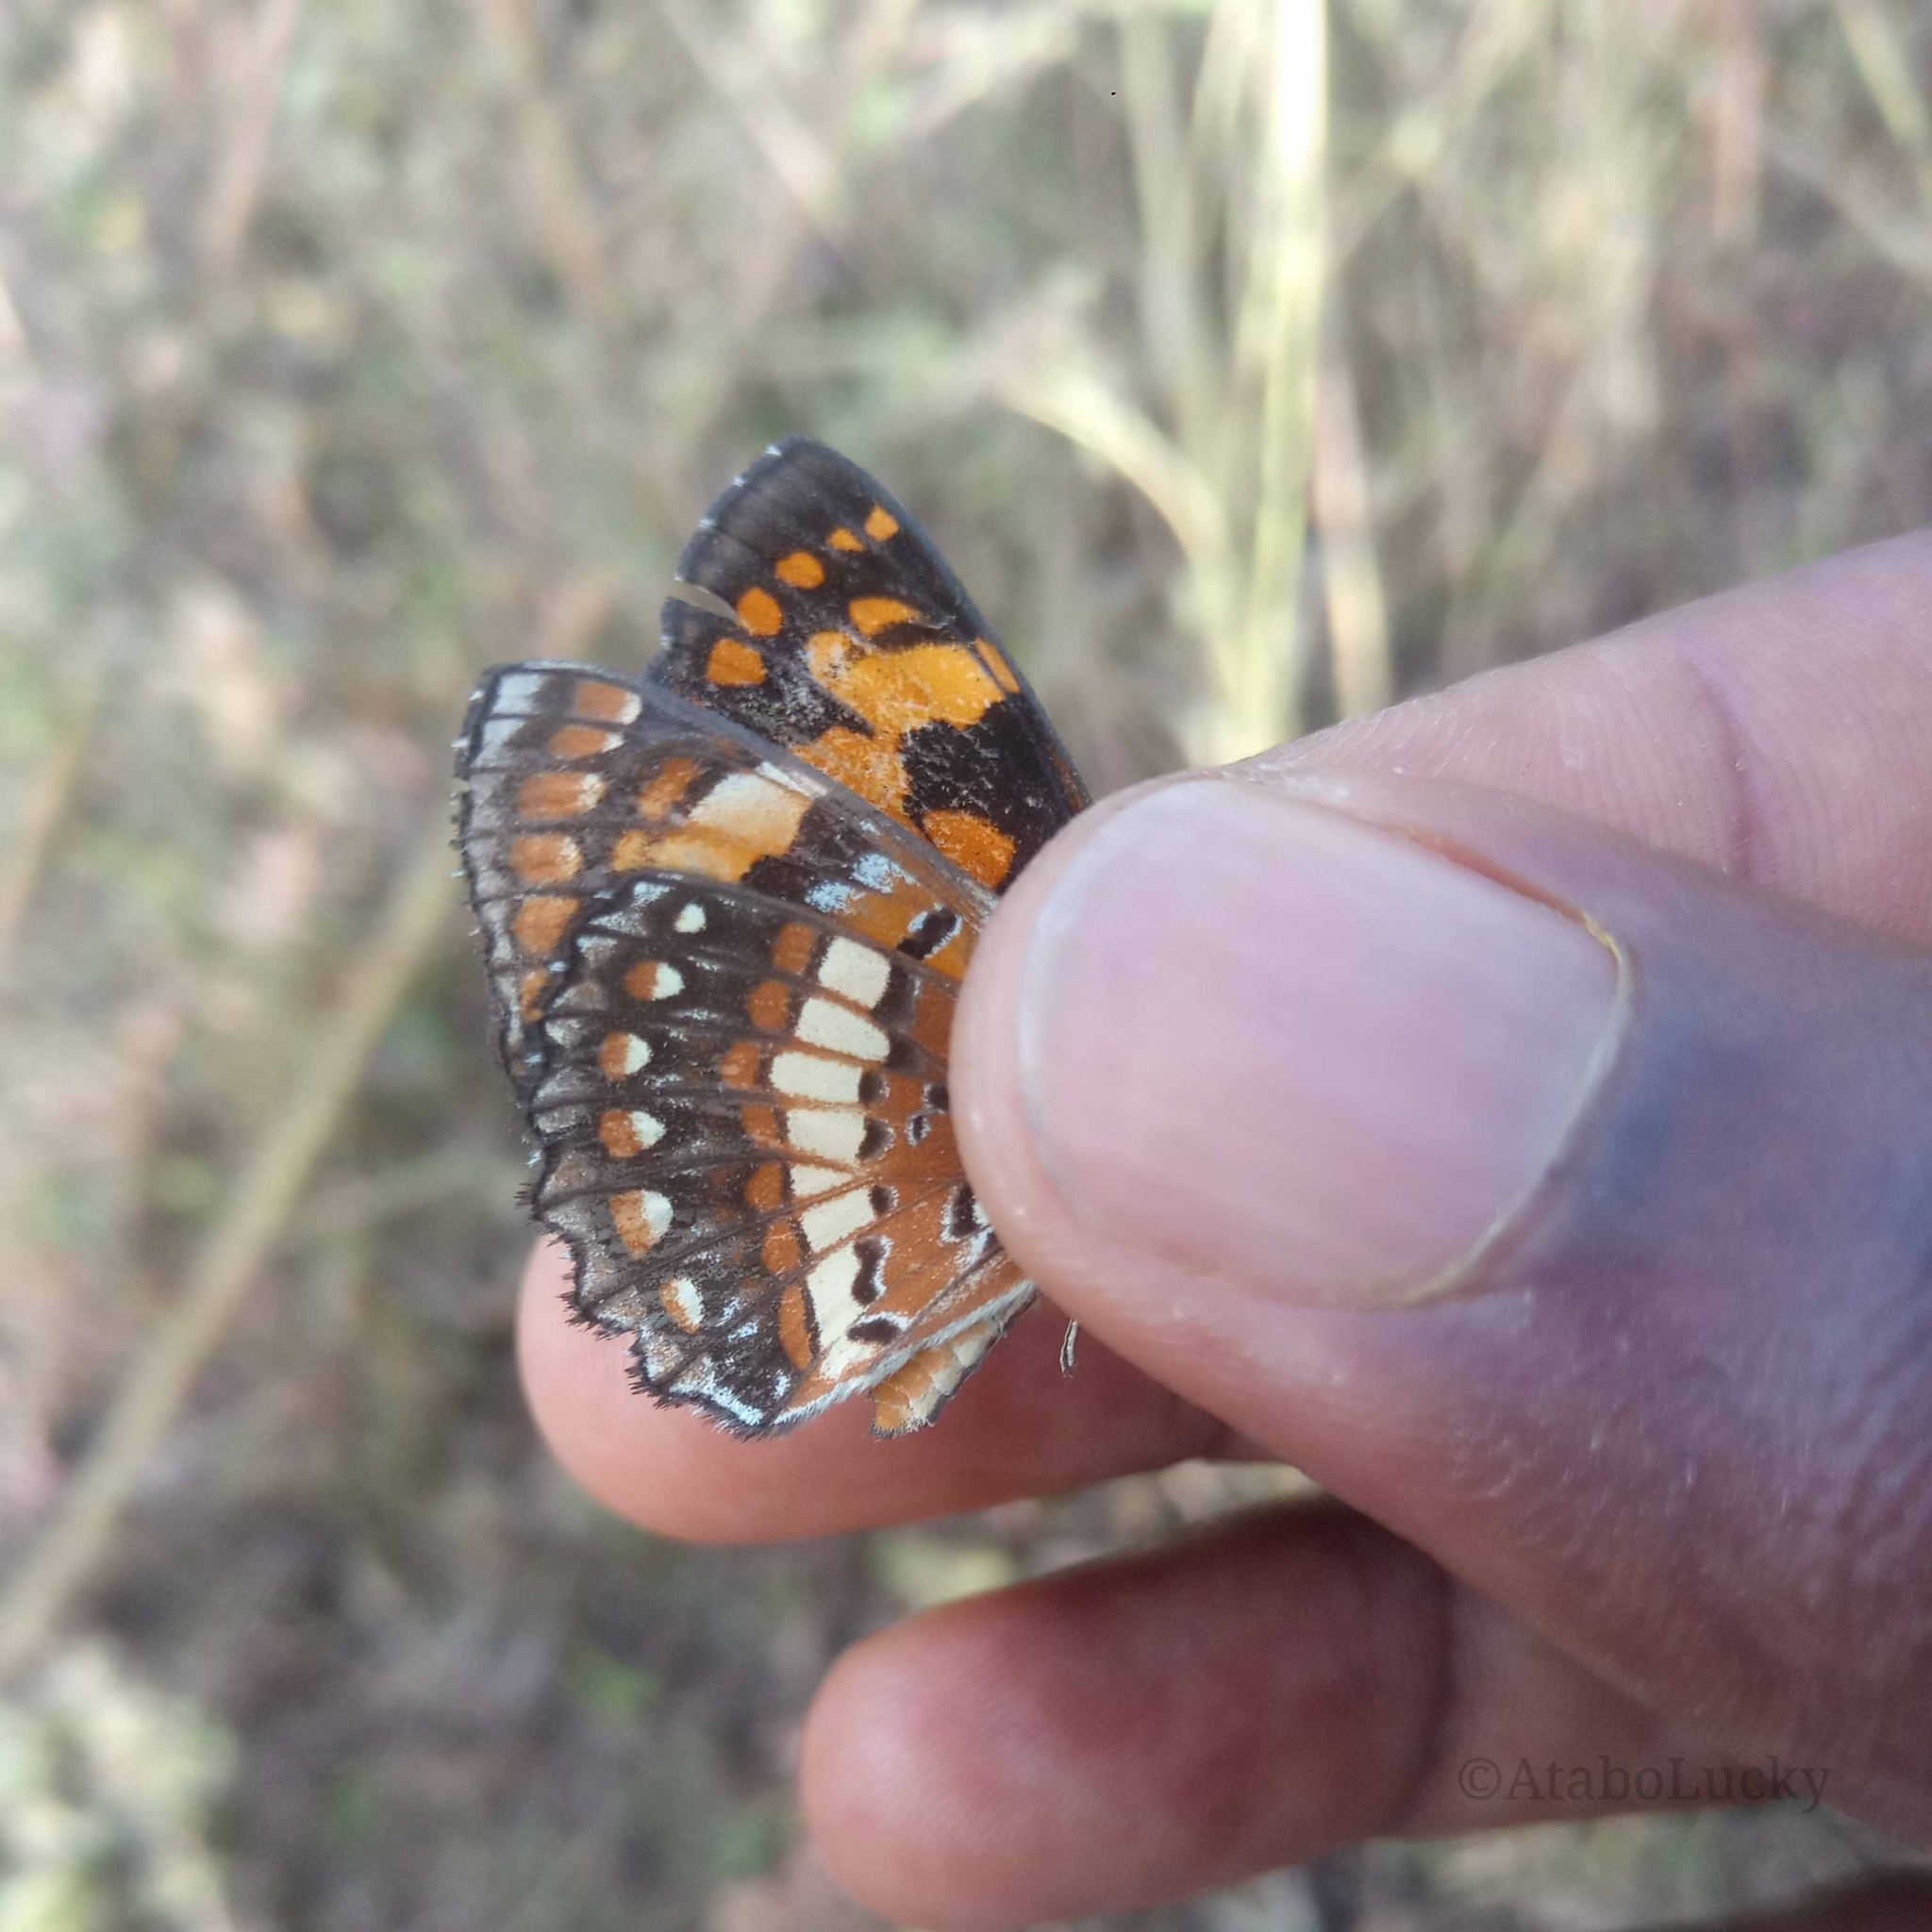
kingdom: Animalia
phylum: Arthropoda
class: Insecta
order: Lepidoptera
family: Nymphalidae
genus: Byblia
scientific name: Byblia anvatara
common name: African joker
